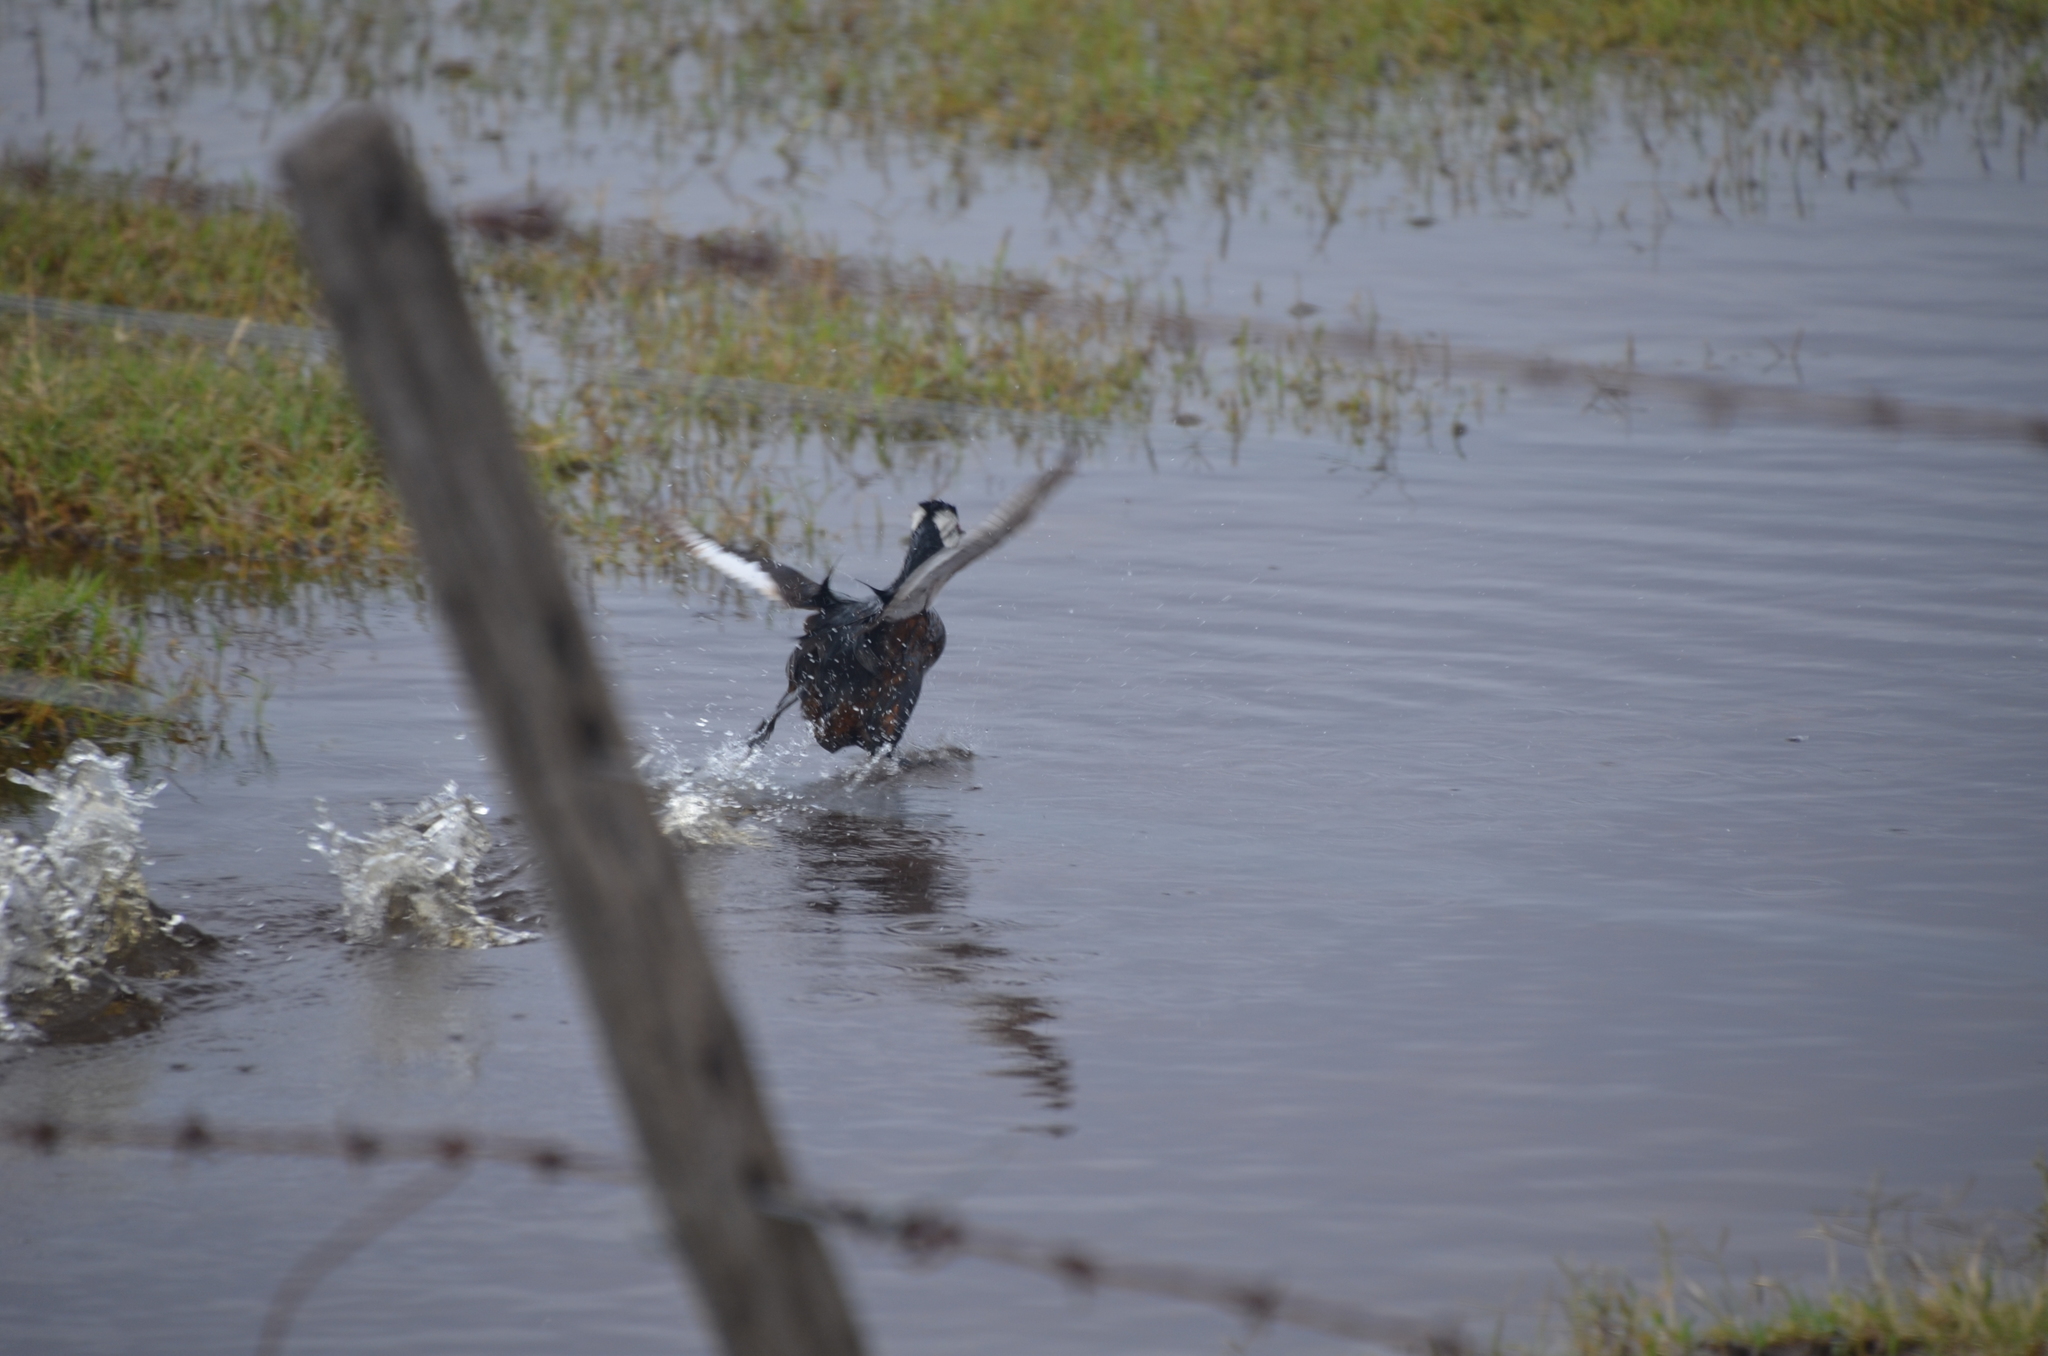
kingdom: Animalia
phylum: Chordata
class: Aves
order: Podicipediformes
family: Podicipedidae
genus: Rollandia
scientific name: Rollandia rolland
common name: White-tufted grebe
